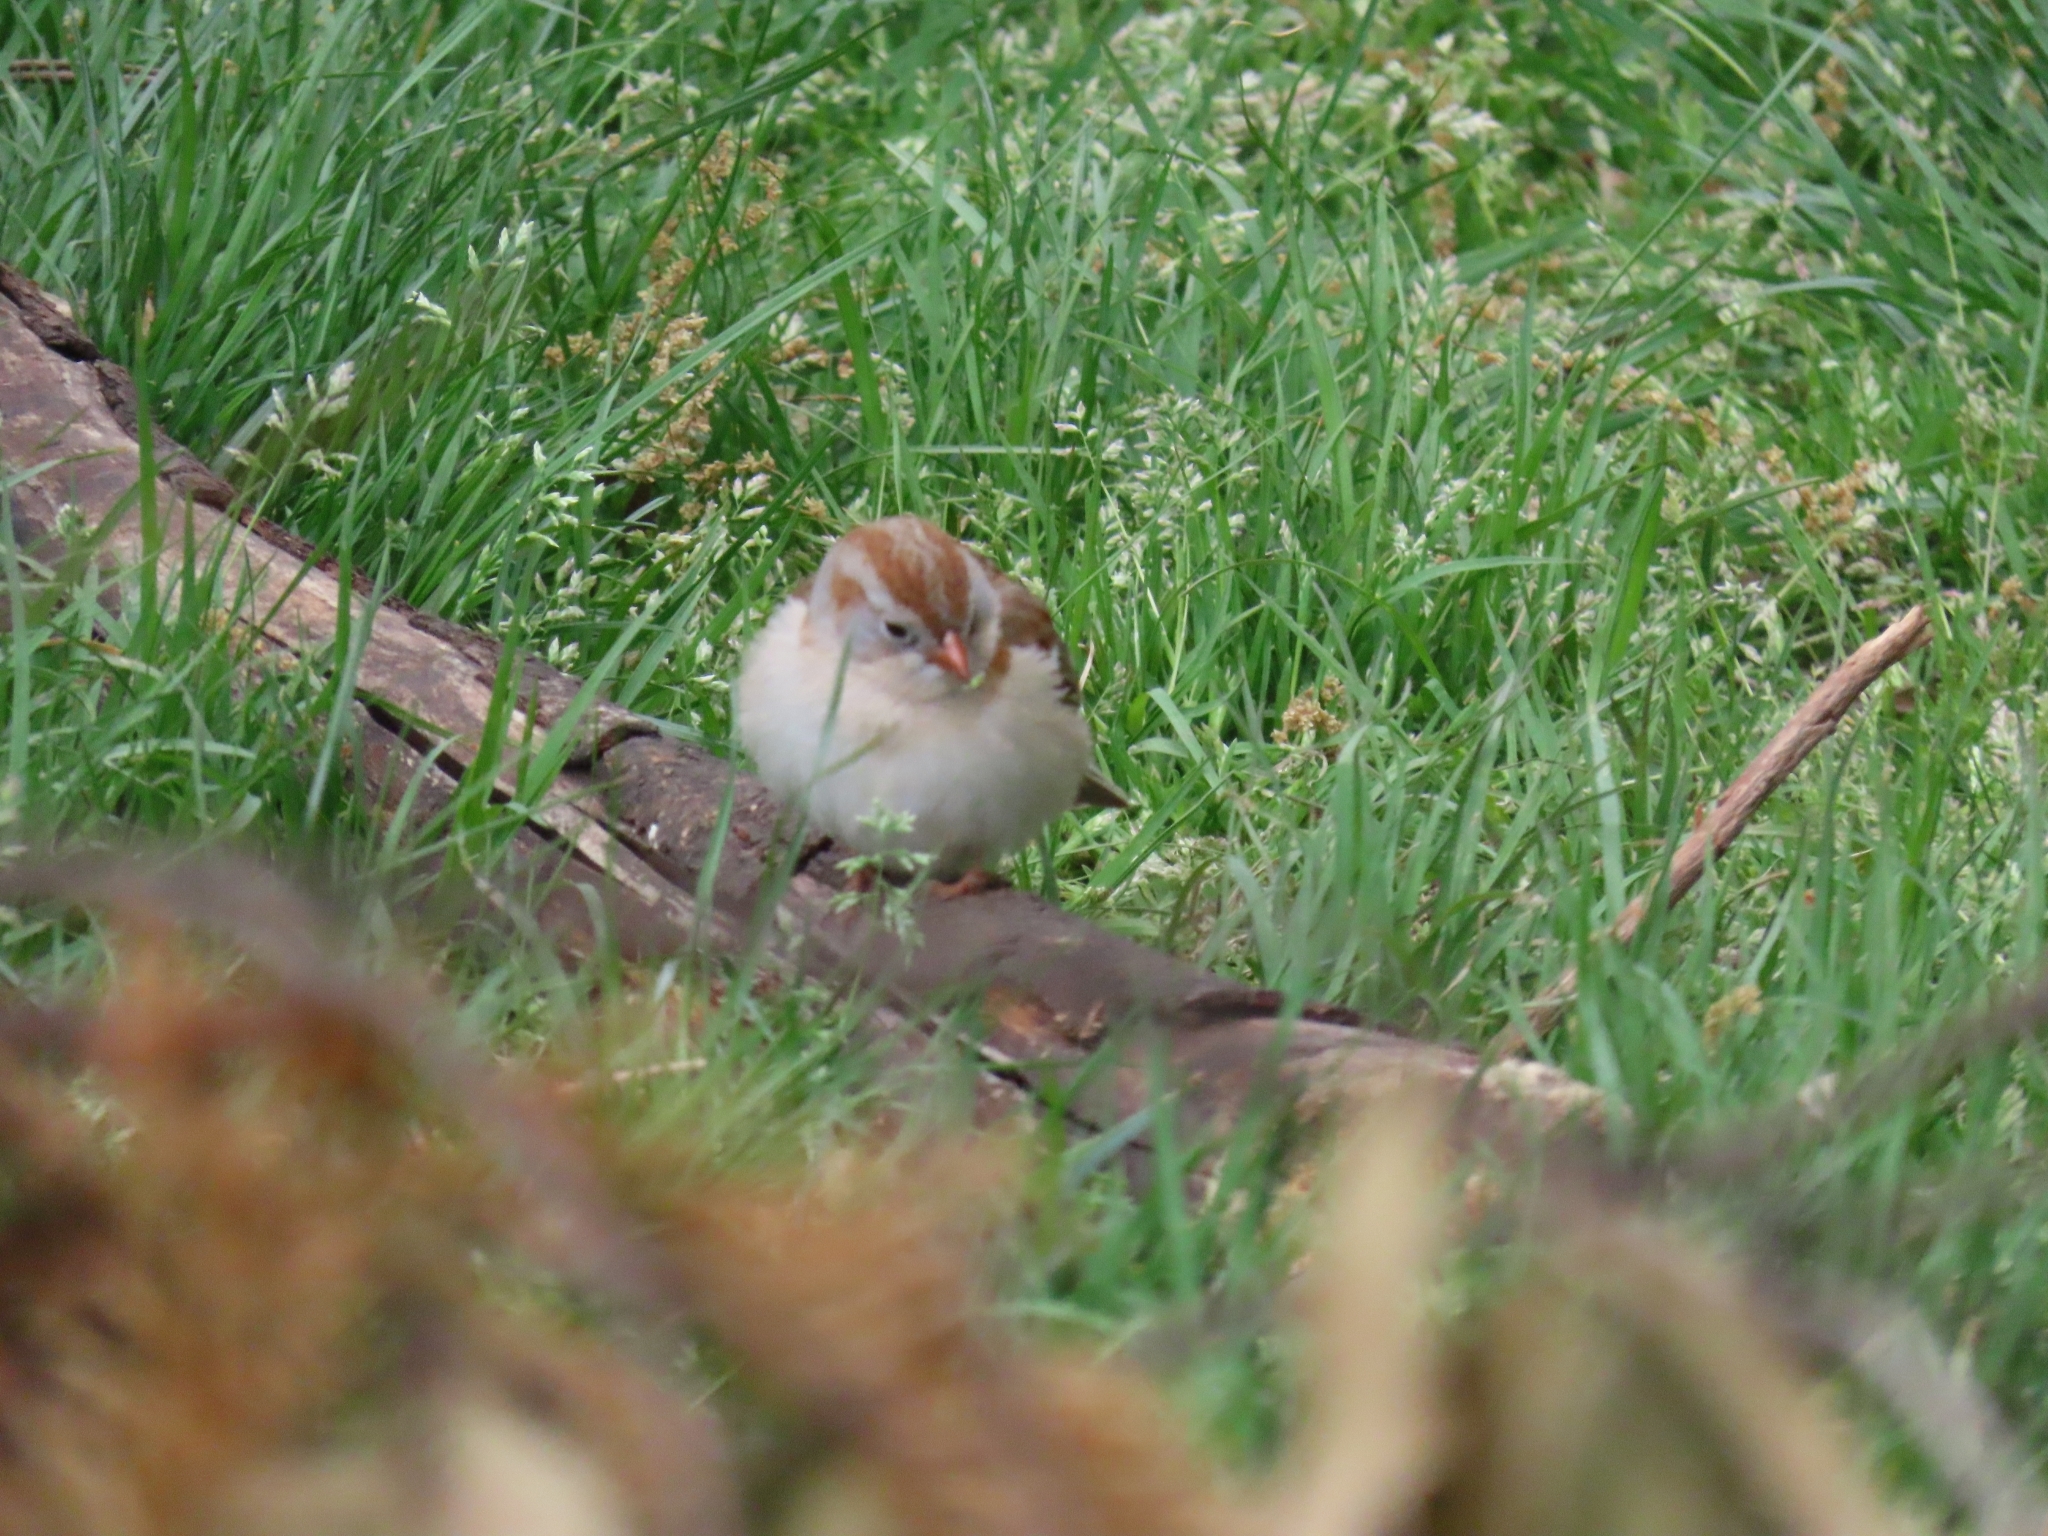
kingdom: Animalia
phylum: Chordata
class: Aves
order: Passeriformes
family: Passerellidae
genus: Spizella
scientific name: Spizella pusilla
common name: Field sparrow
